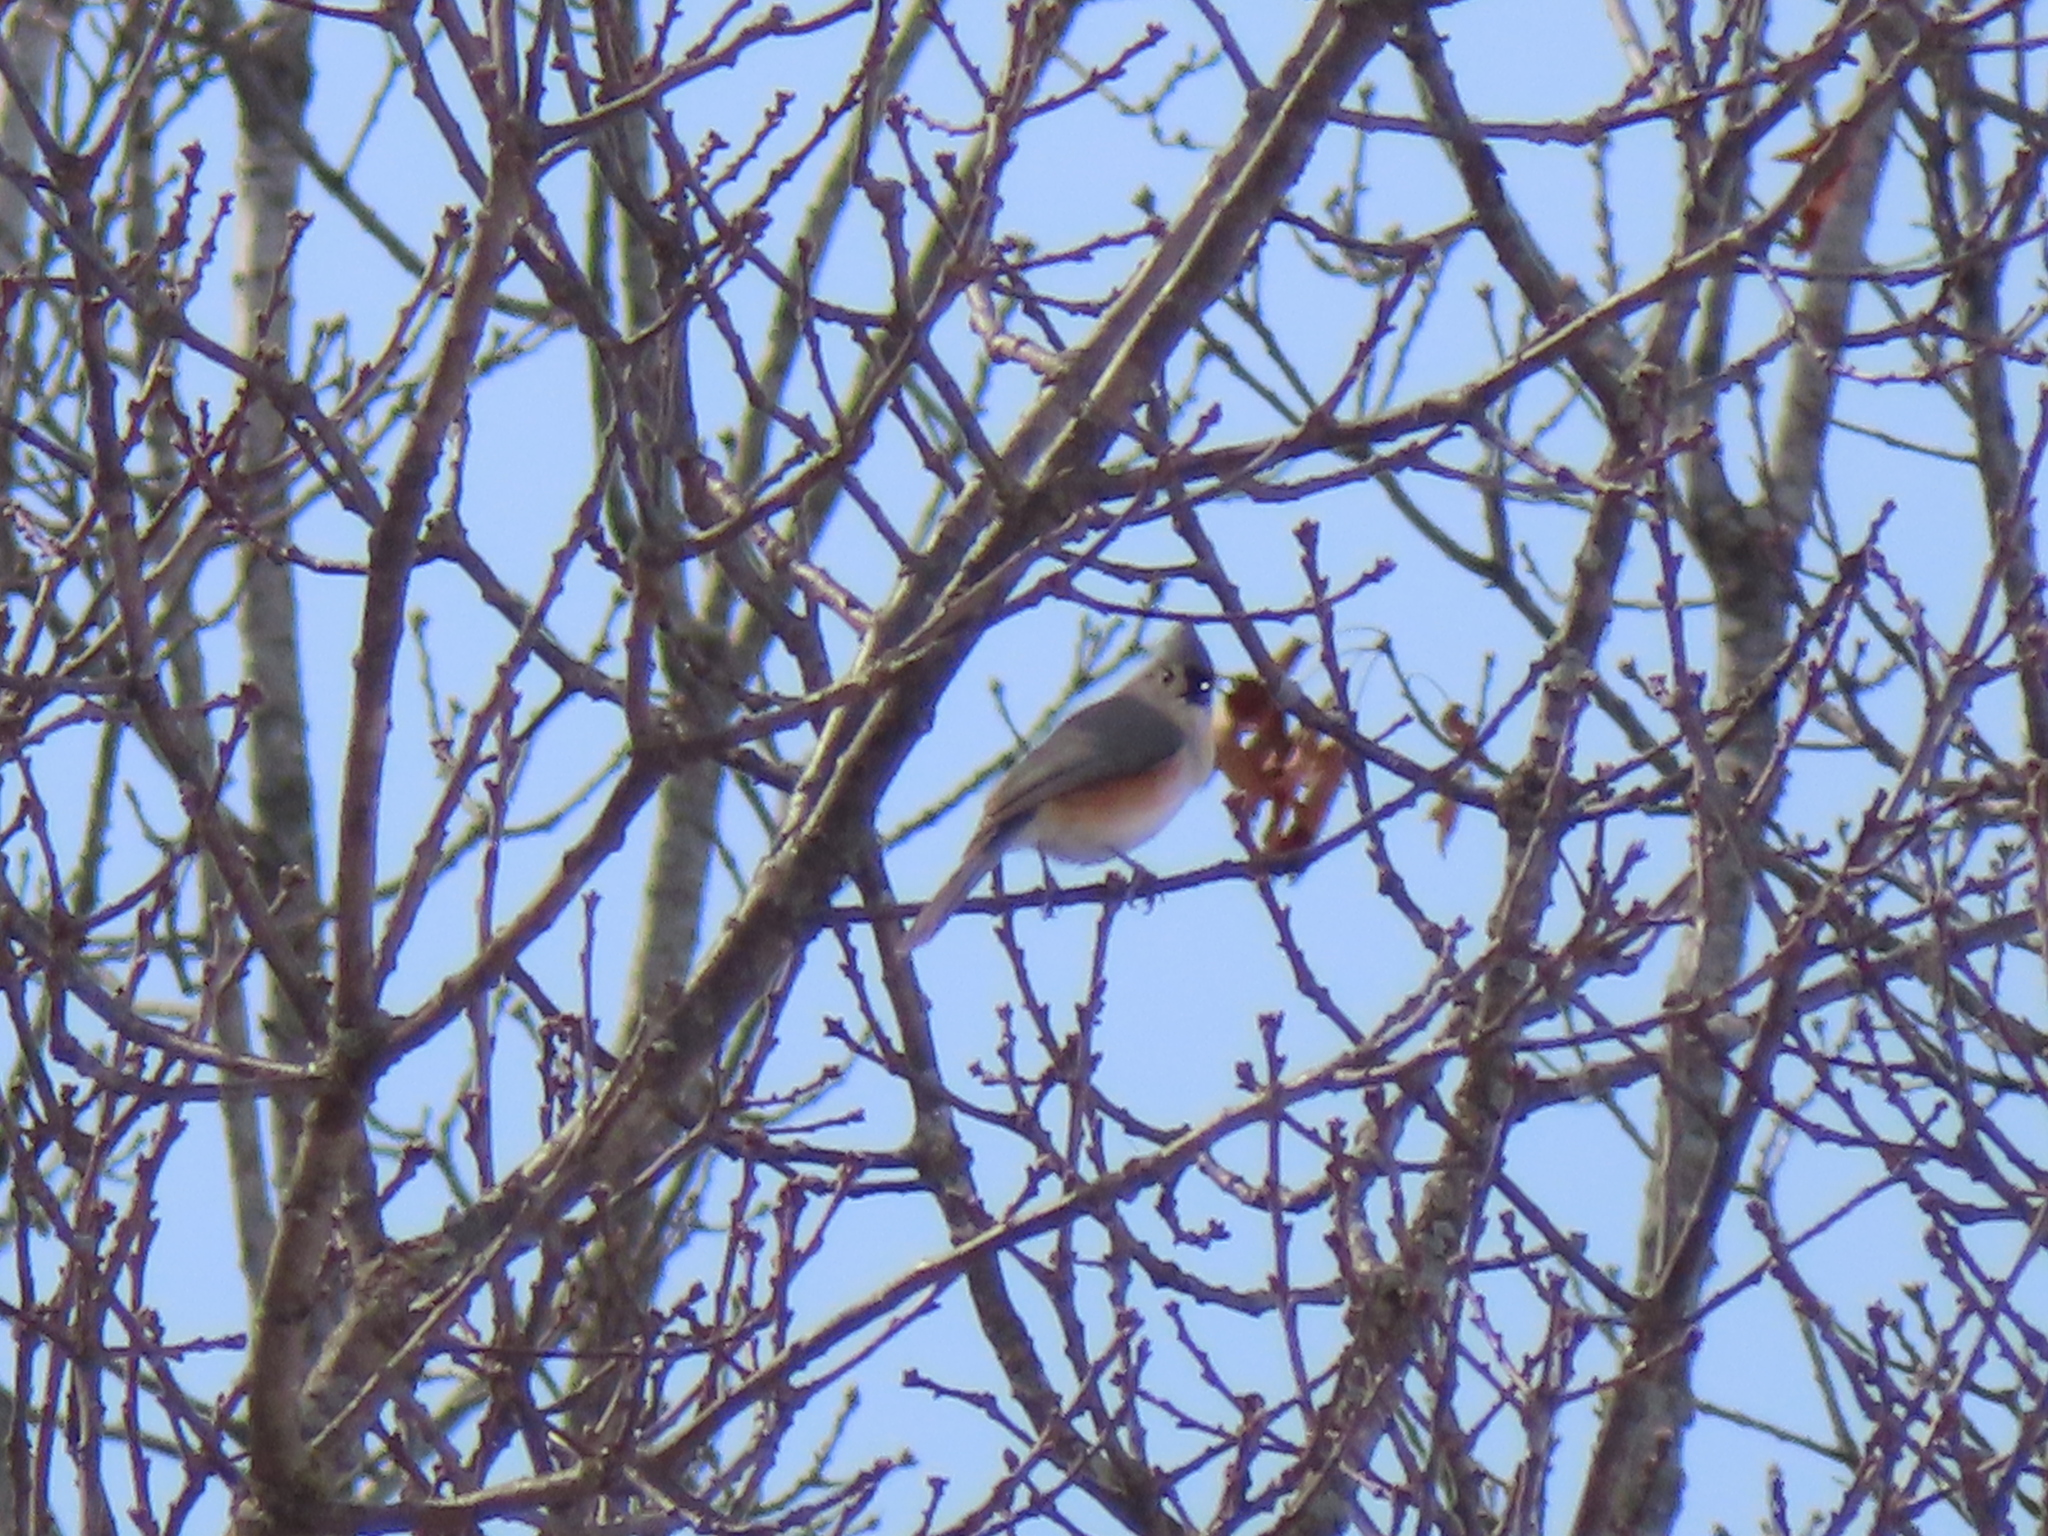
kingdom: Animalia
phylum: Chordata
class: Aves
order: Passeriformes
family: Paridae
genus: Baeolophus
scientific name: Baeolophus bicolor
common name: Tufted titmouse
